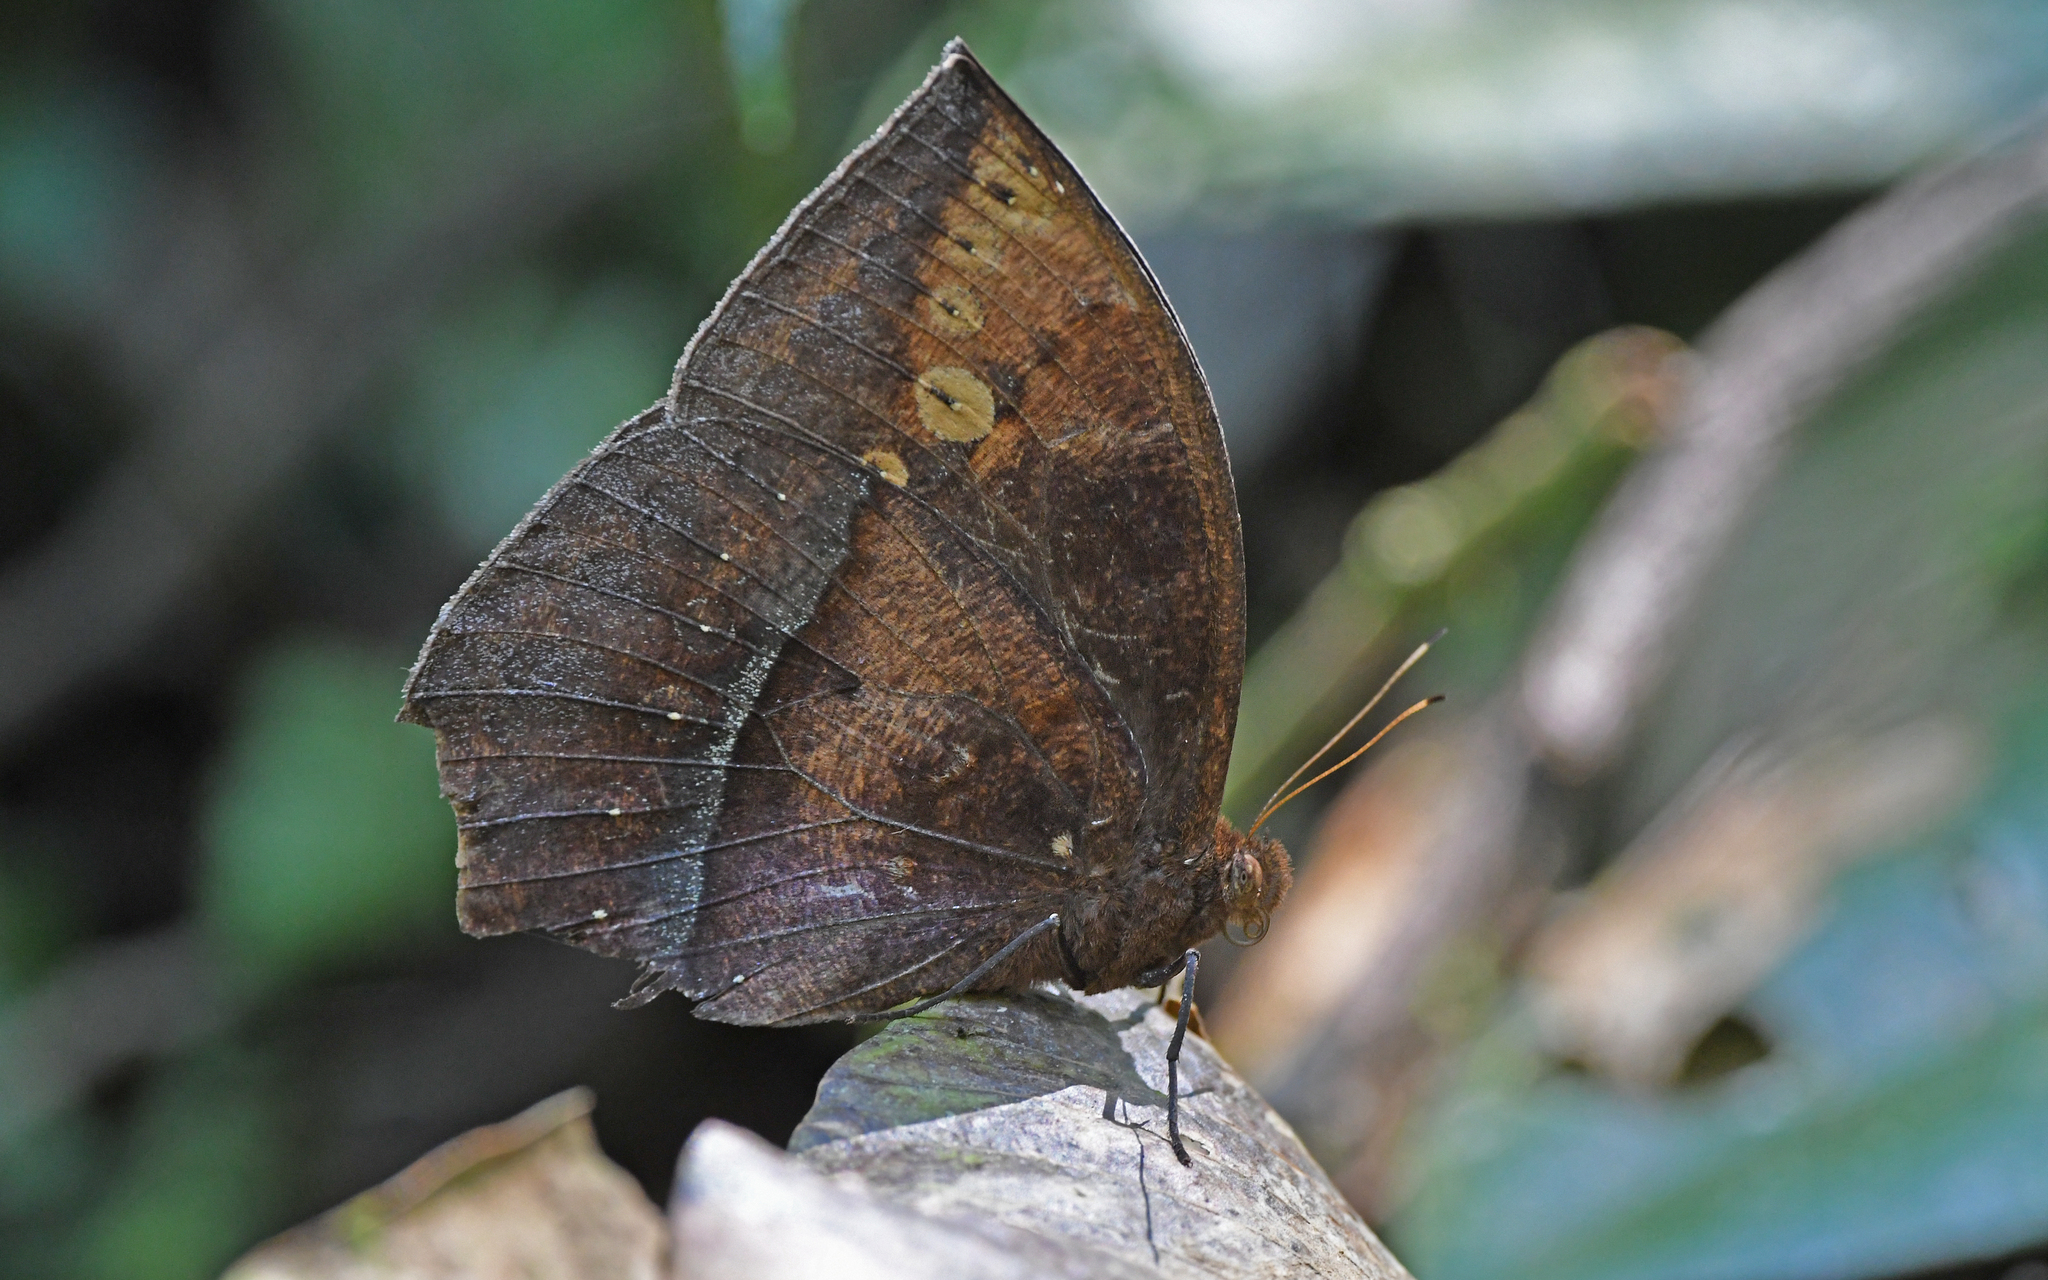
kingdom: Animalia
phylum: Arthropoda
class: Insecta
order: Lepidoptera
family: Nymphalidae
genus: Taygetis
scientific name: Taygetis mermeria
